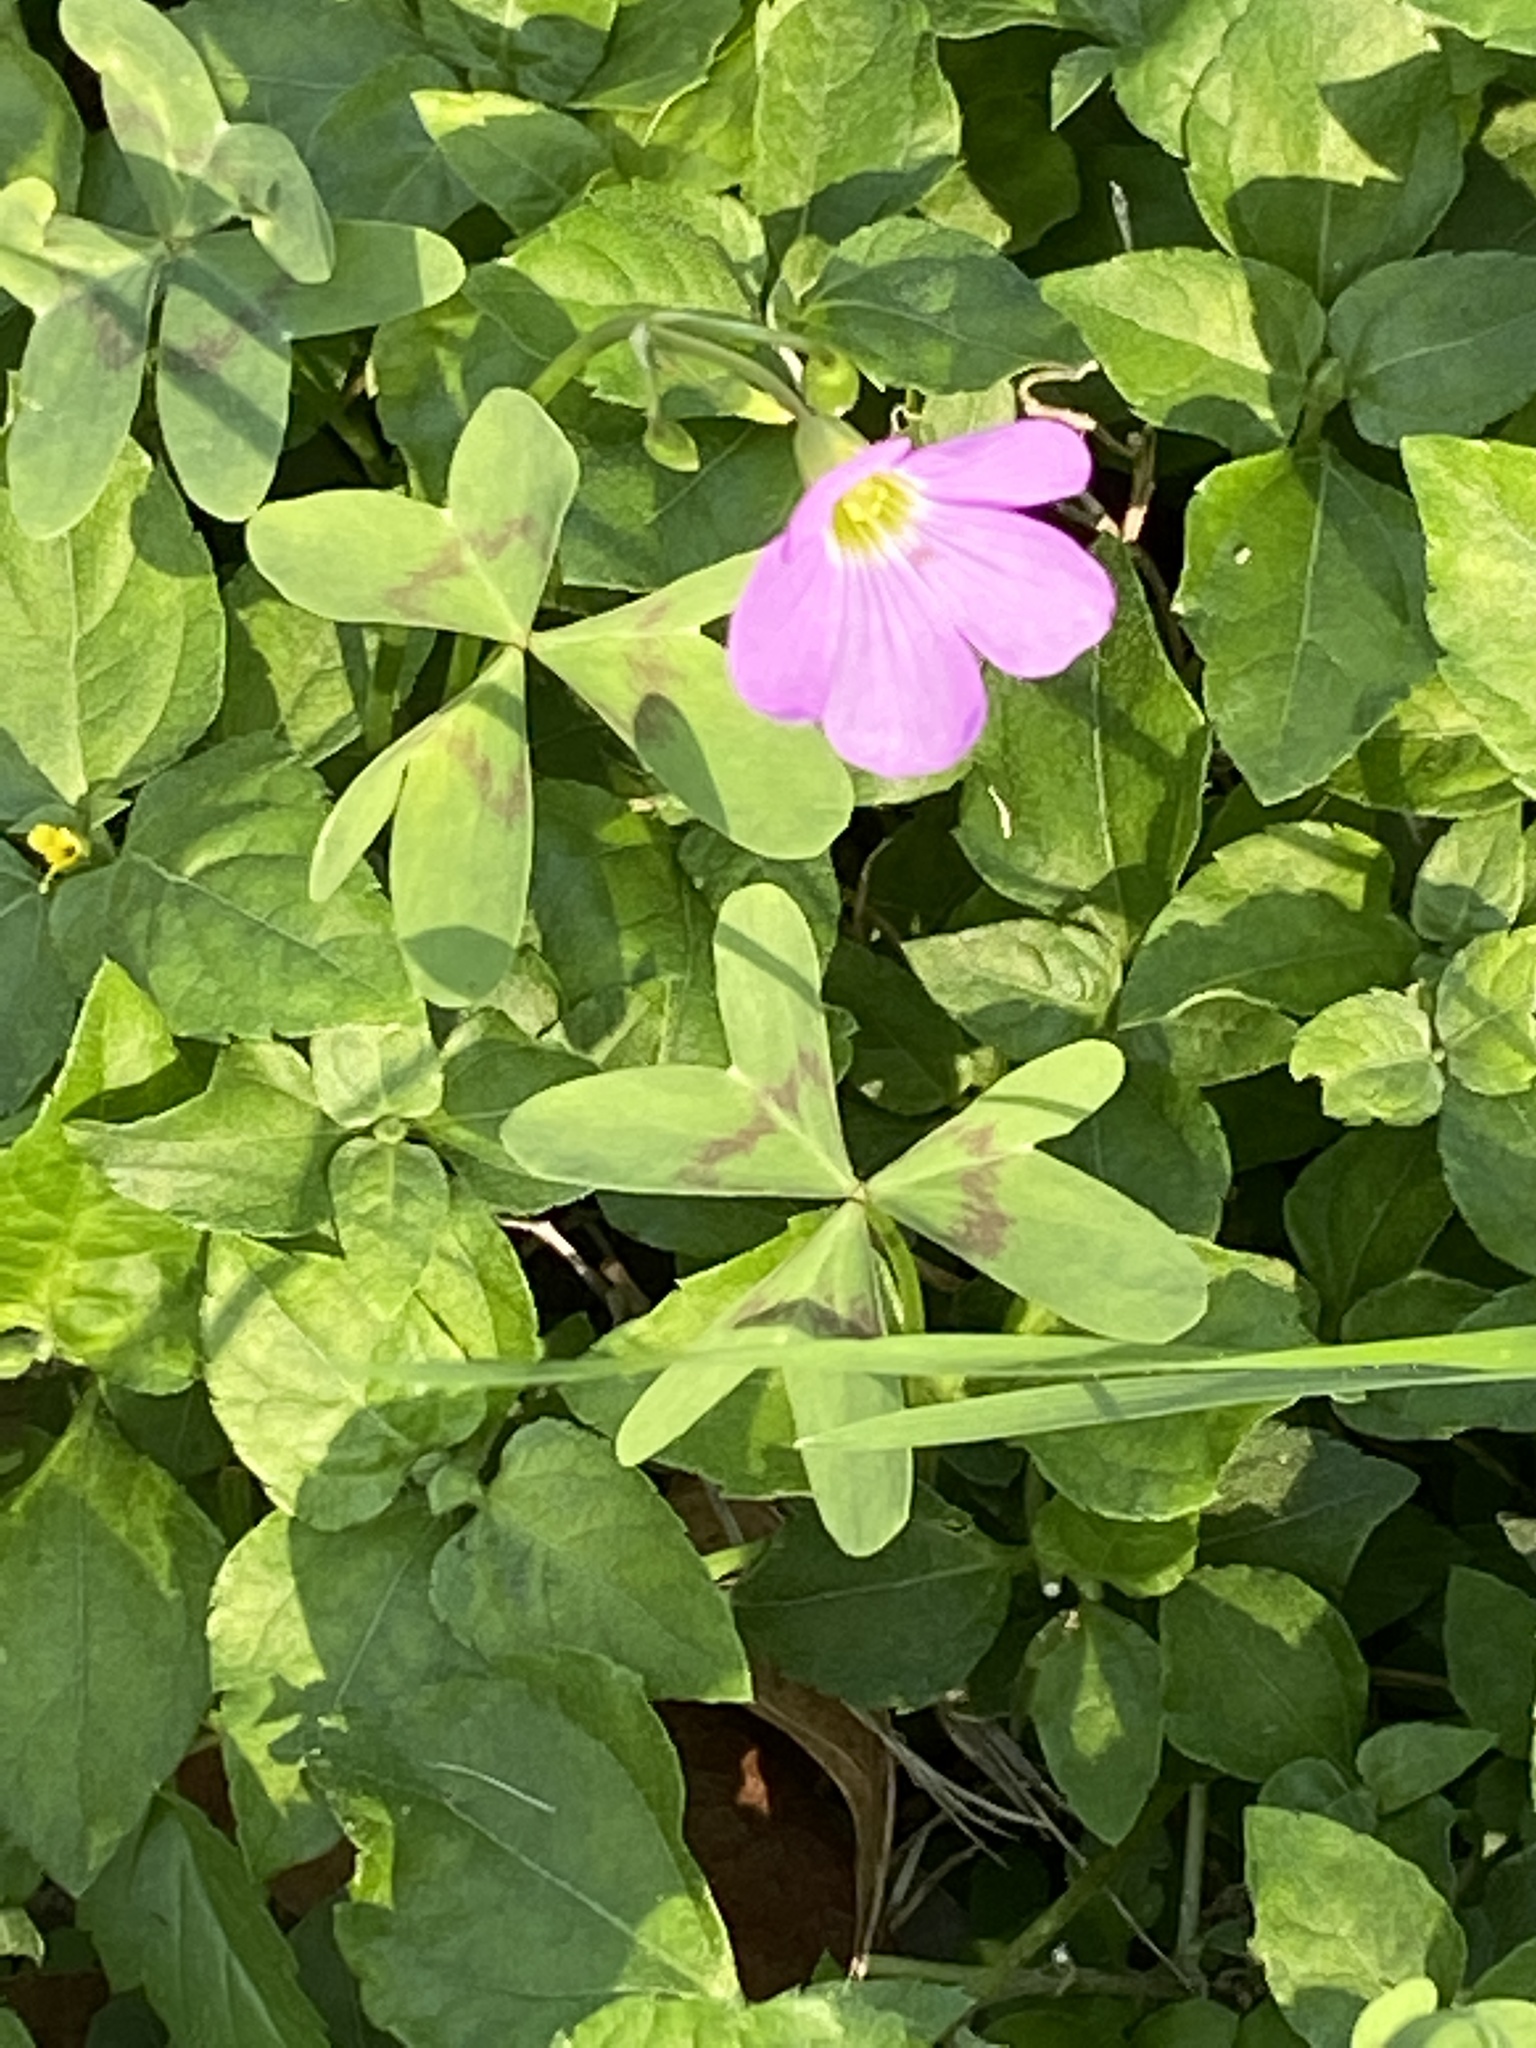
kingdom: Plantae
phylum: Tracheophyta
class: Magnoliopsida
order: Oxalidales
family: Oxalidaceae
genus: Oxalis
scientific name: Oxalis drummondii
